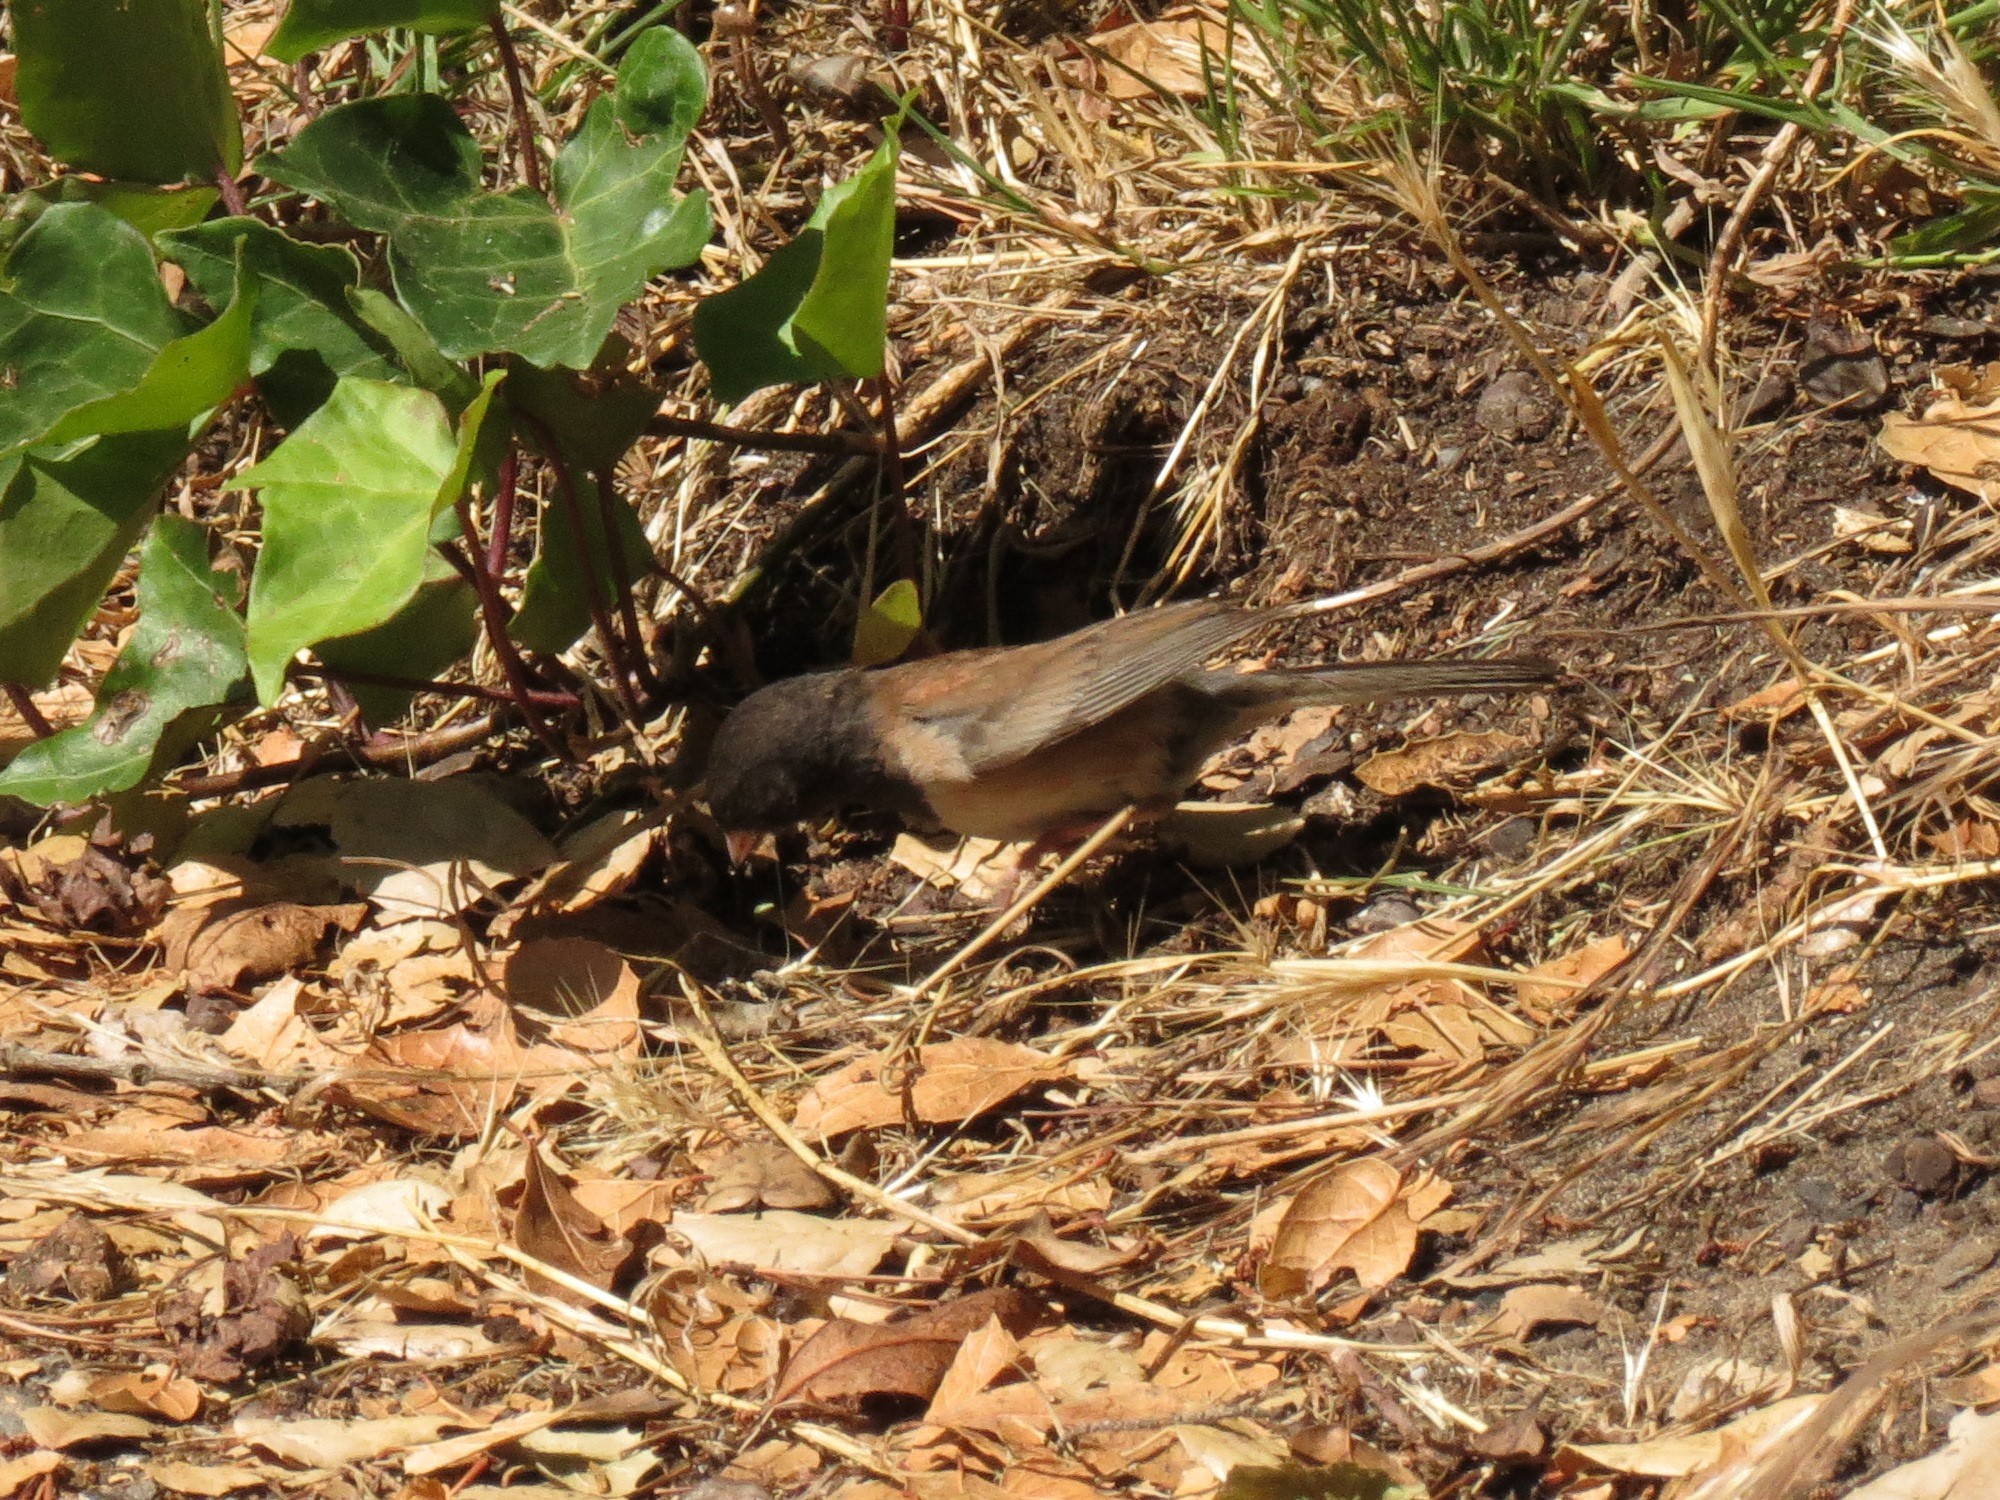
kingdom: Animalia
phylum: Chordata
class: Aves
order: Passeriformes
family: Passerellidae
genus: Junco
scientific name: Junco hyemalis
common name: Dark-eyed junco
